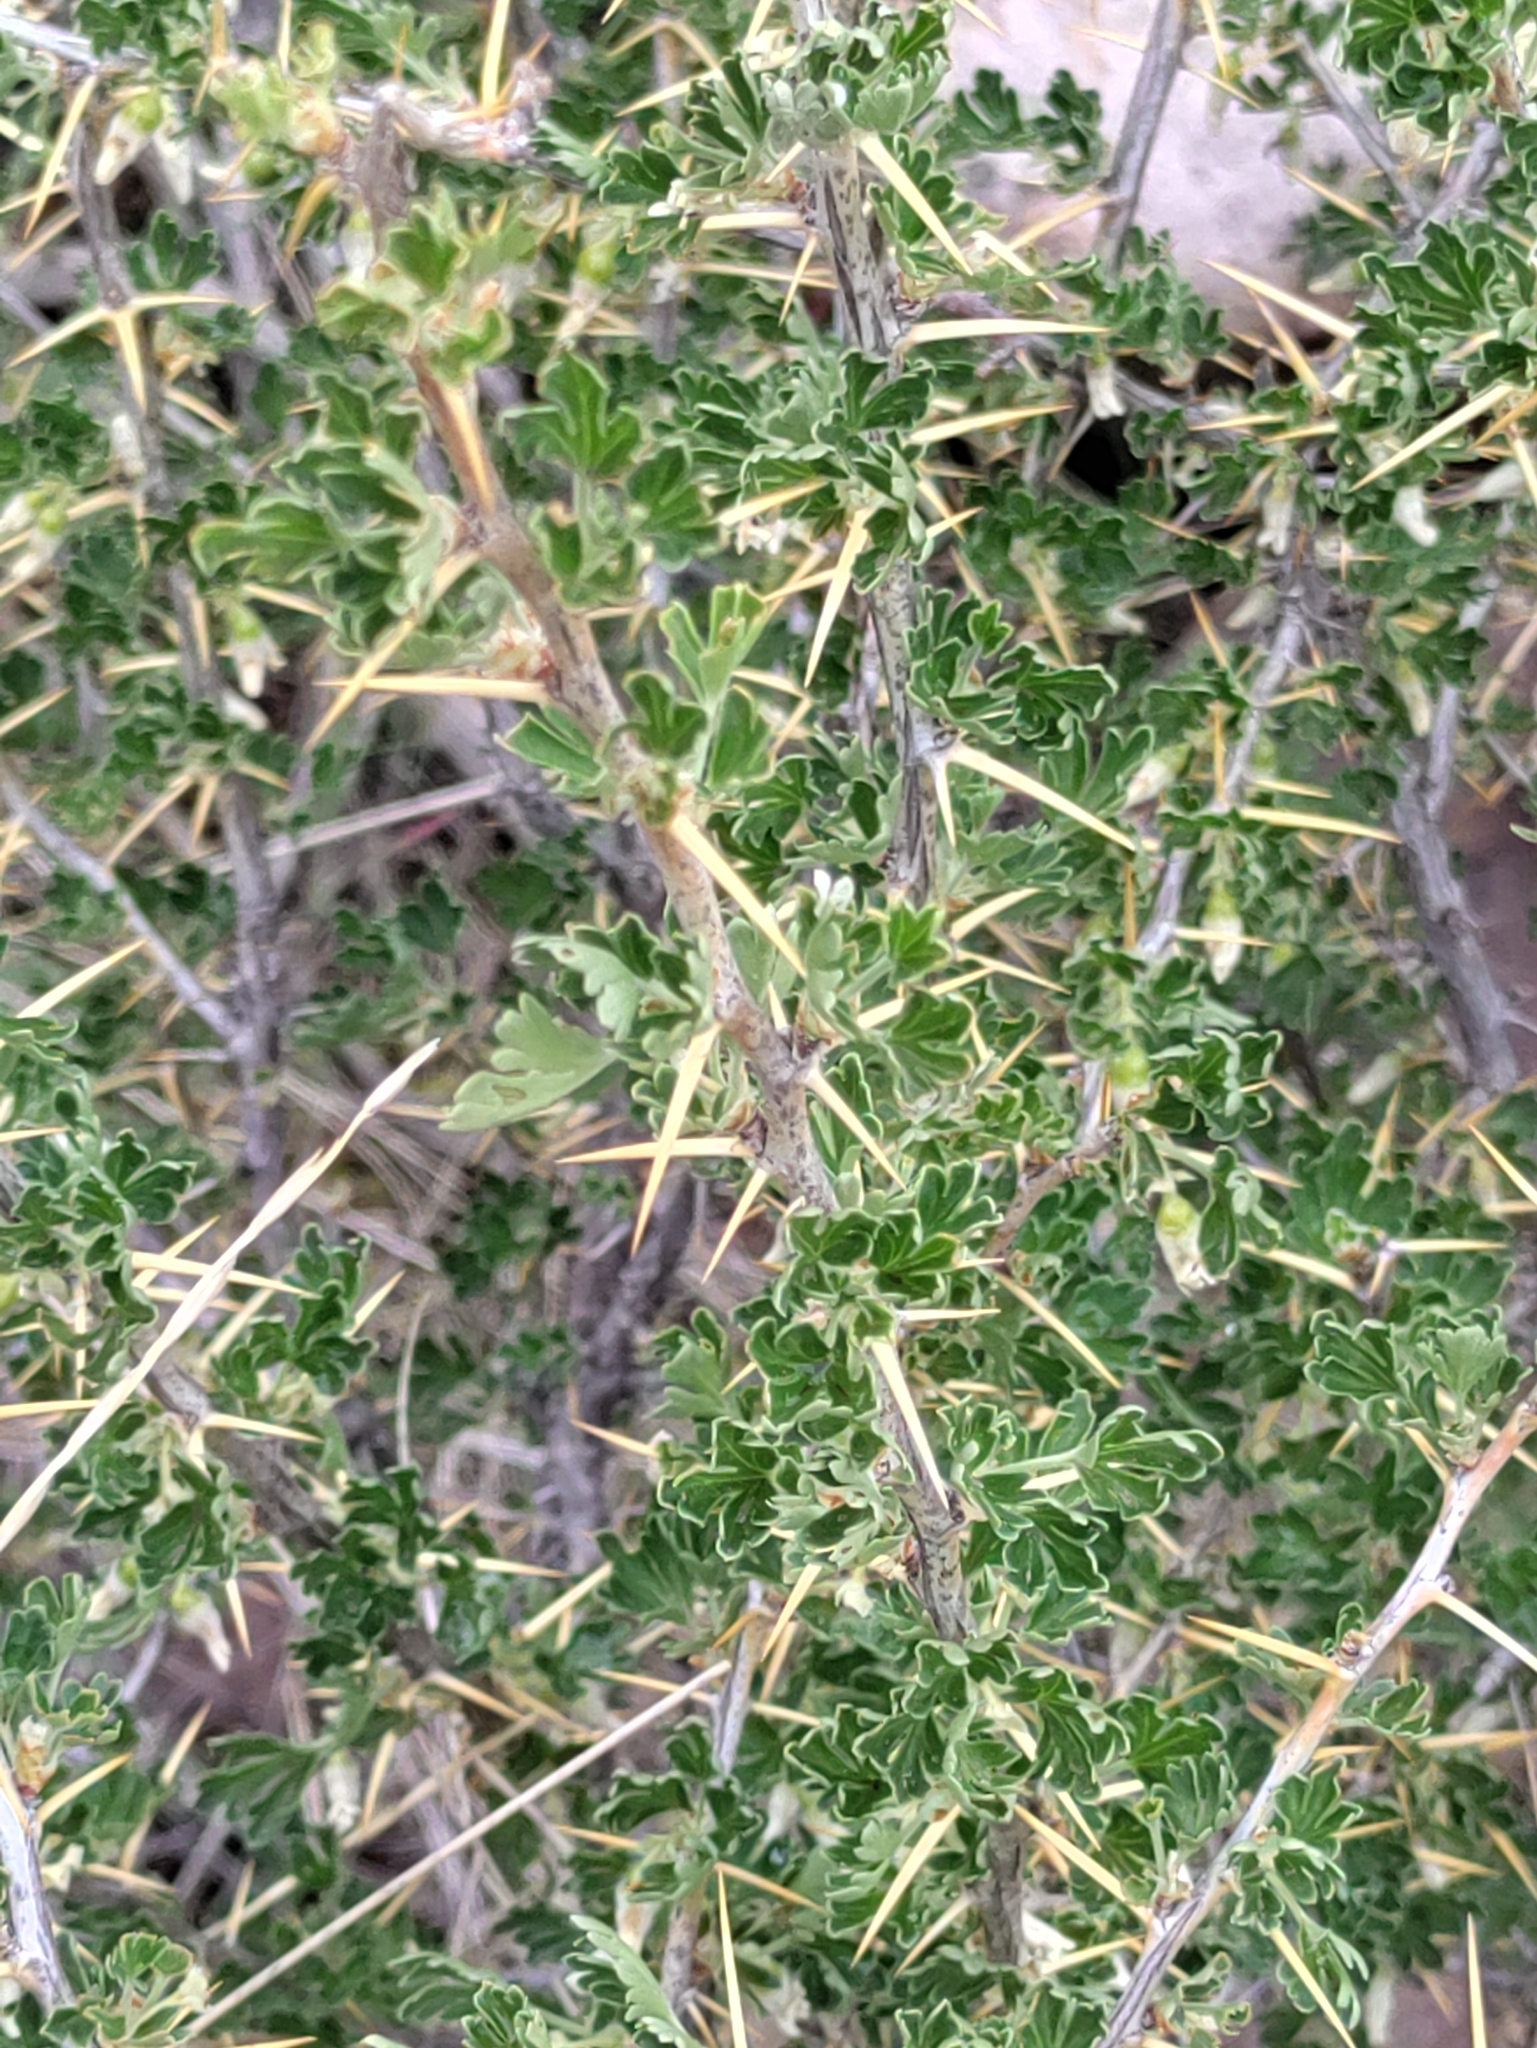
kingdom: Plantae
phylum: Tracheophyta
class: Magnoliopsida
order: Saxifragales
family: Grossulariaceae
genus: Ribes
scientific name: Ribes velutinum
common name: Desert gooseberry
